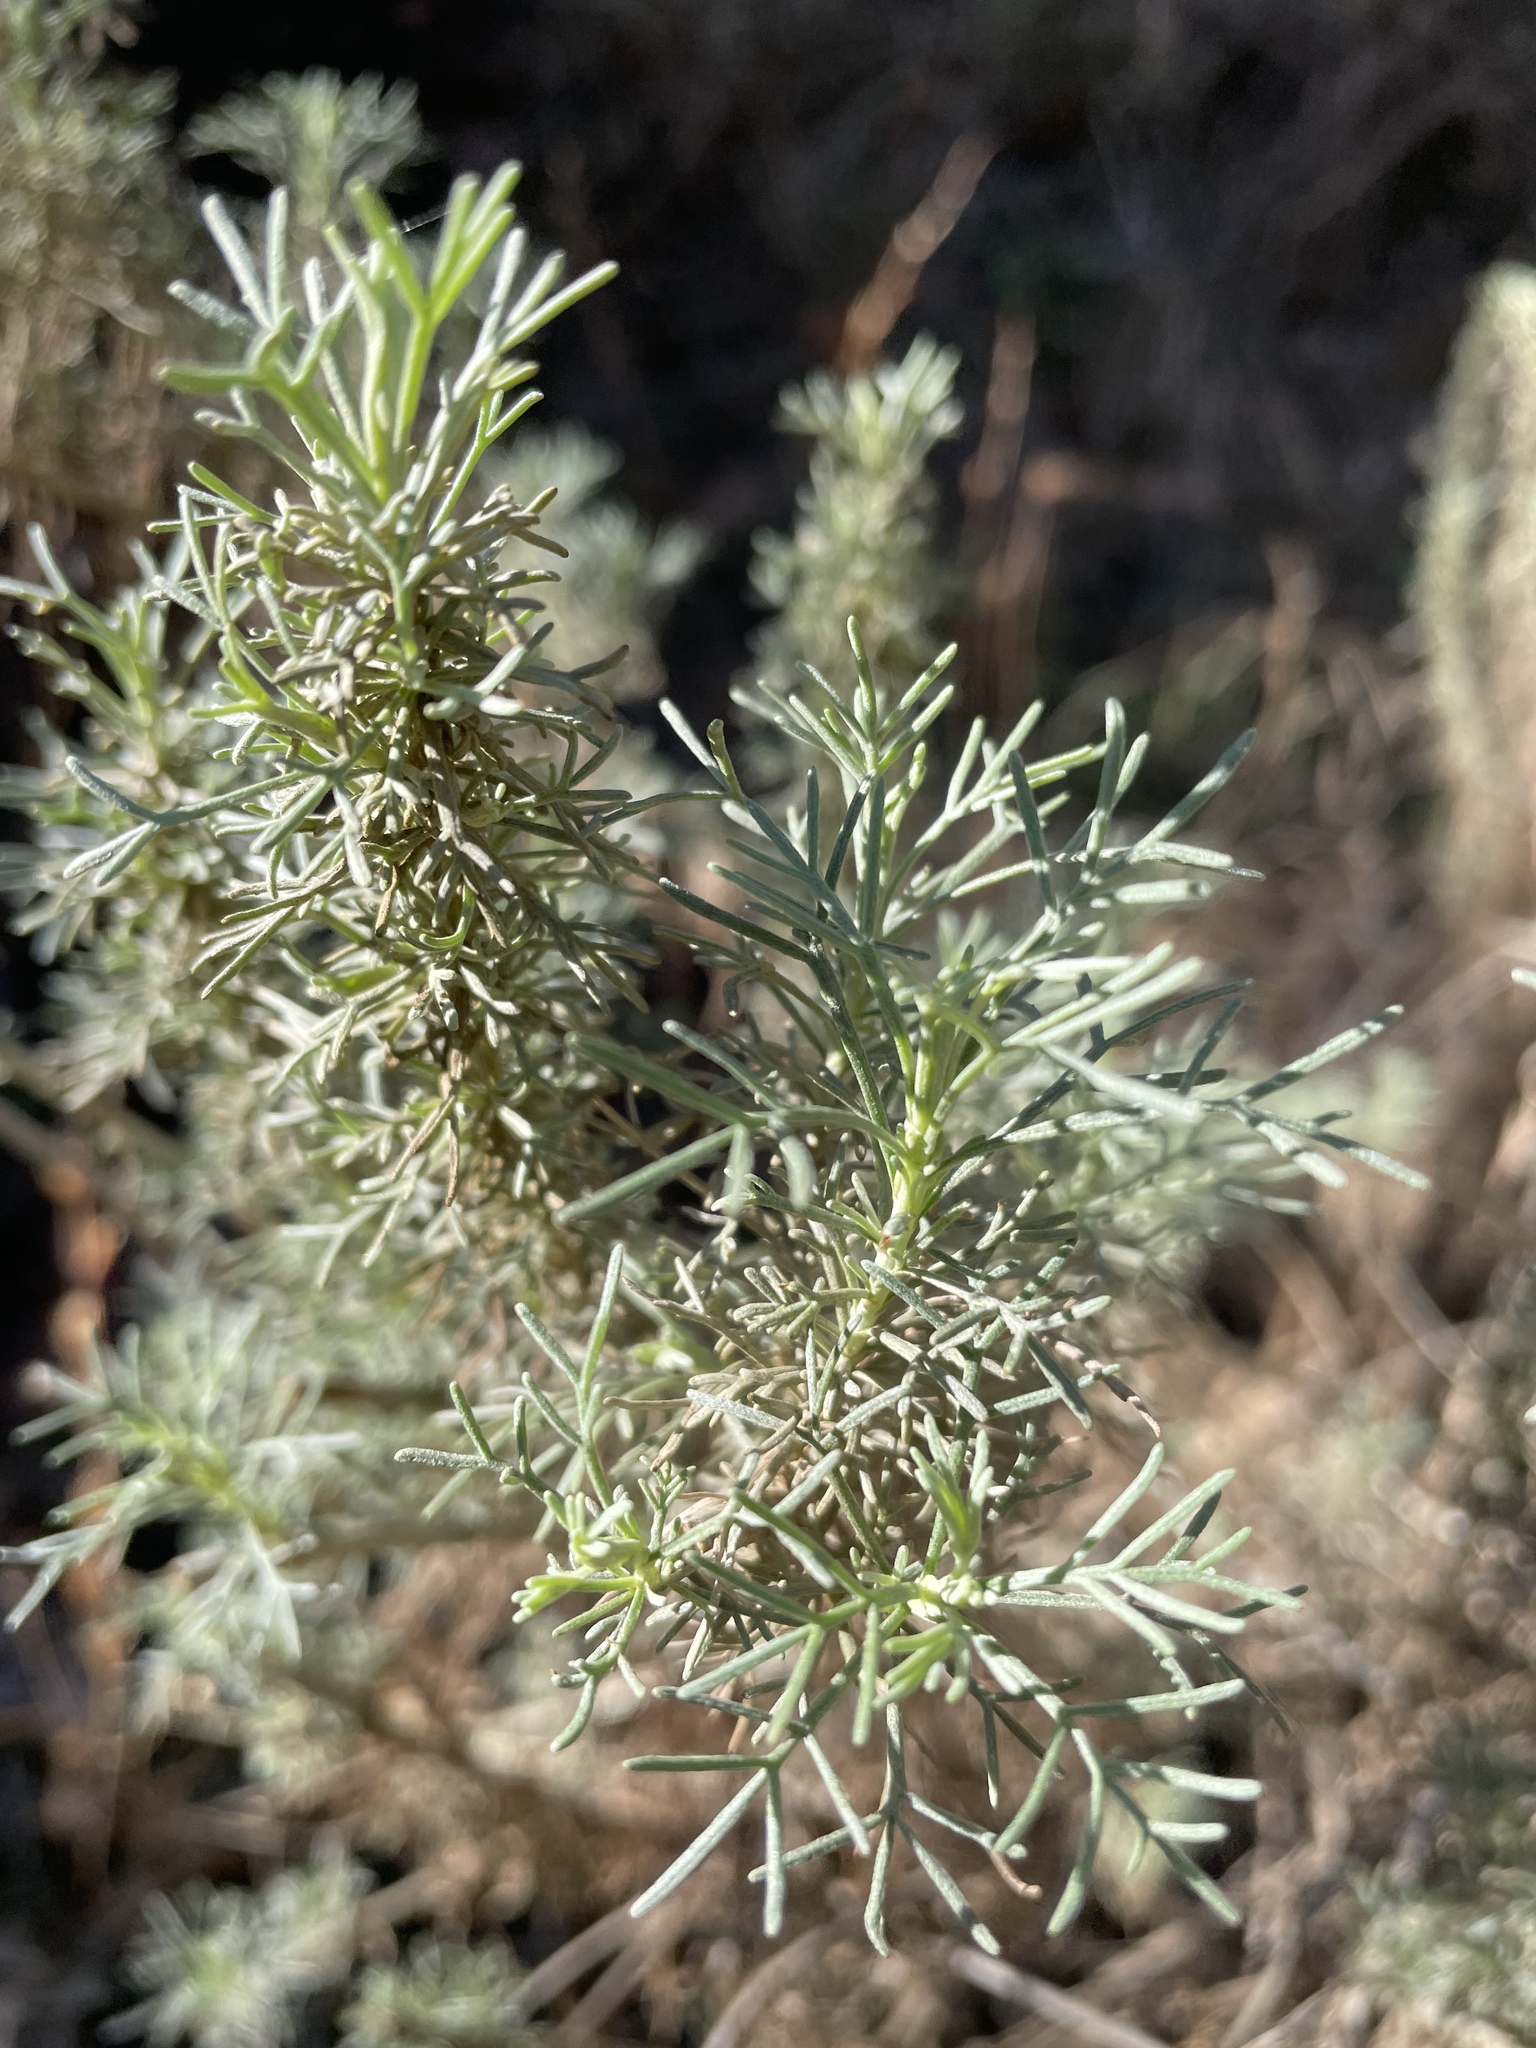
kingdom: Plantae
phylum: Tracheophyta
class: Magnoliopsida
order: Asterales
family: Asteraceae
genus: Artemisia
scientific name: Artemisia californica
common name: California sagebrush
